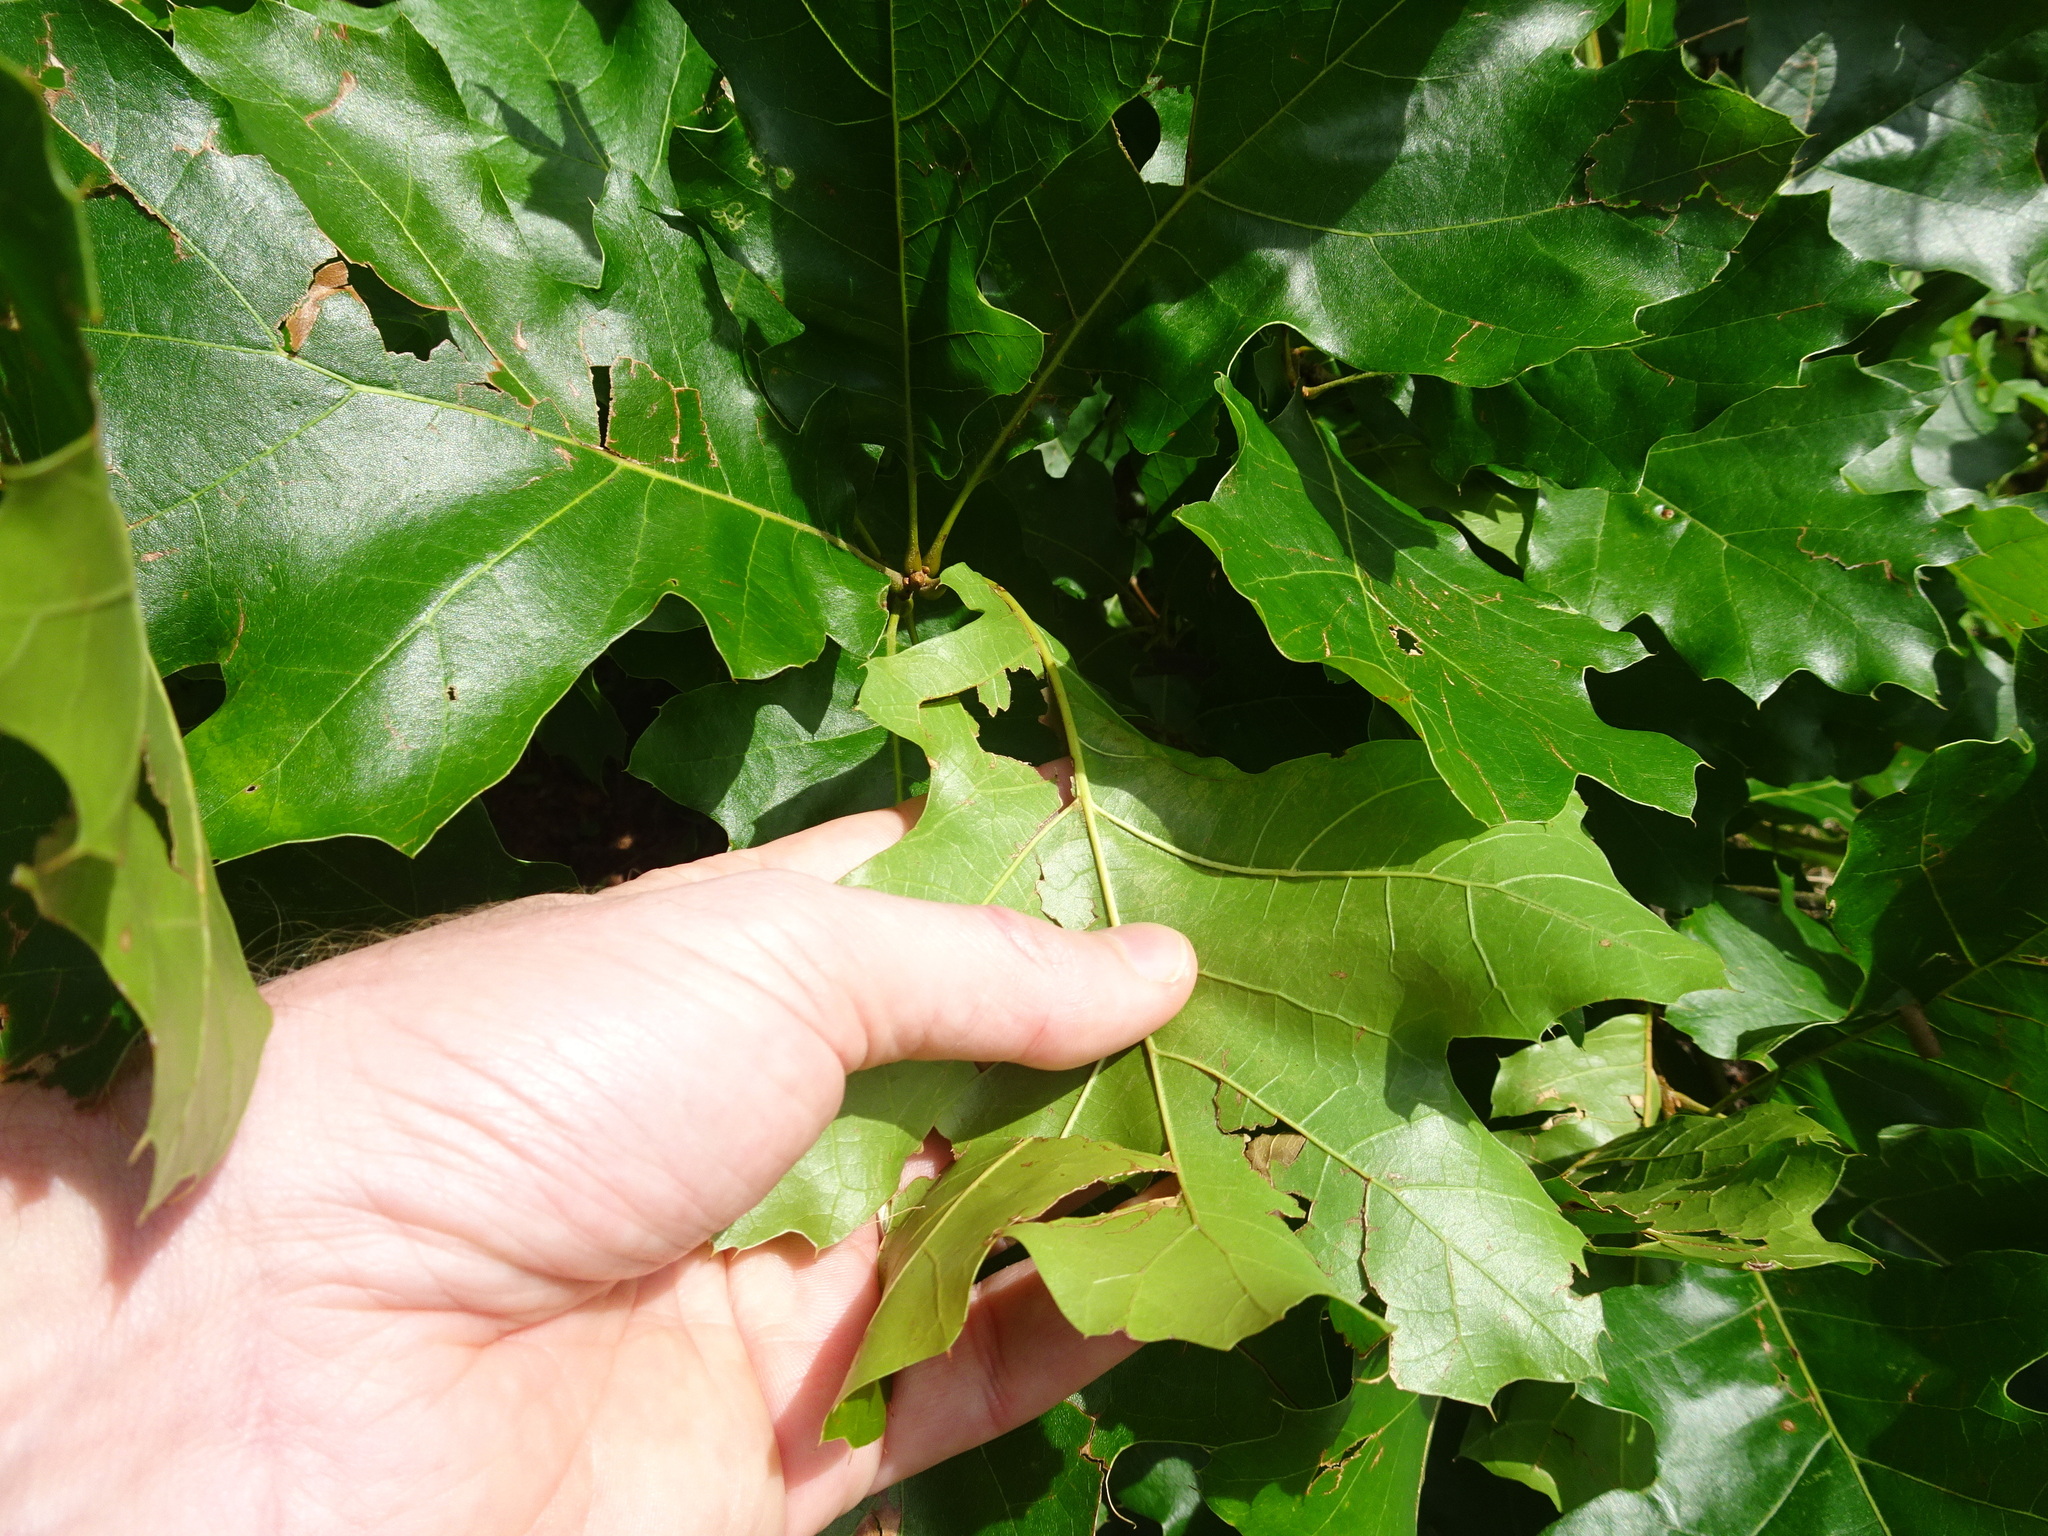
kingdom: Plantae
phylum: Tracheophyta
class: Magnoliopsida
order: Fagales
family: Fagaceae
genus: Quercus
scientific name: Quercus velutina
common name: Black oak
